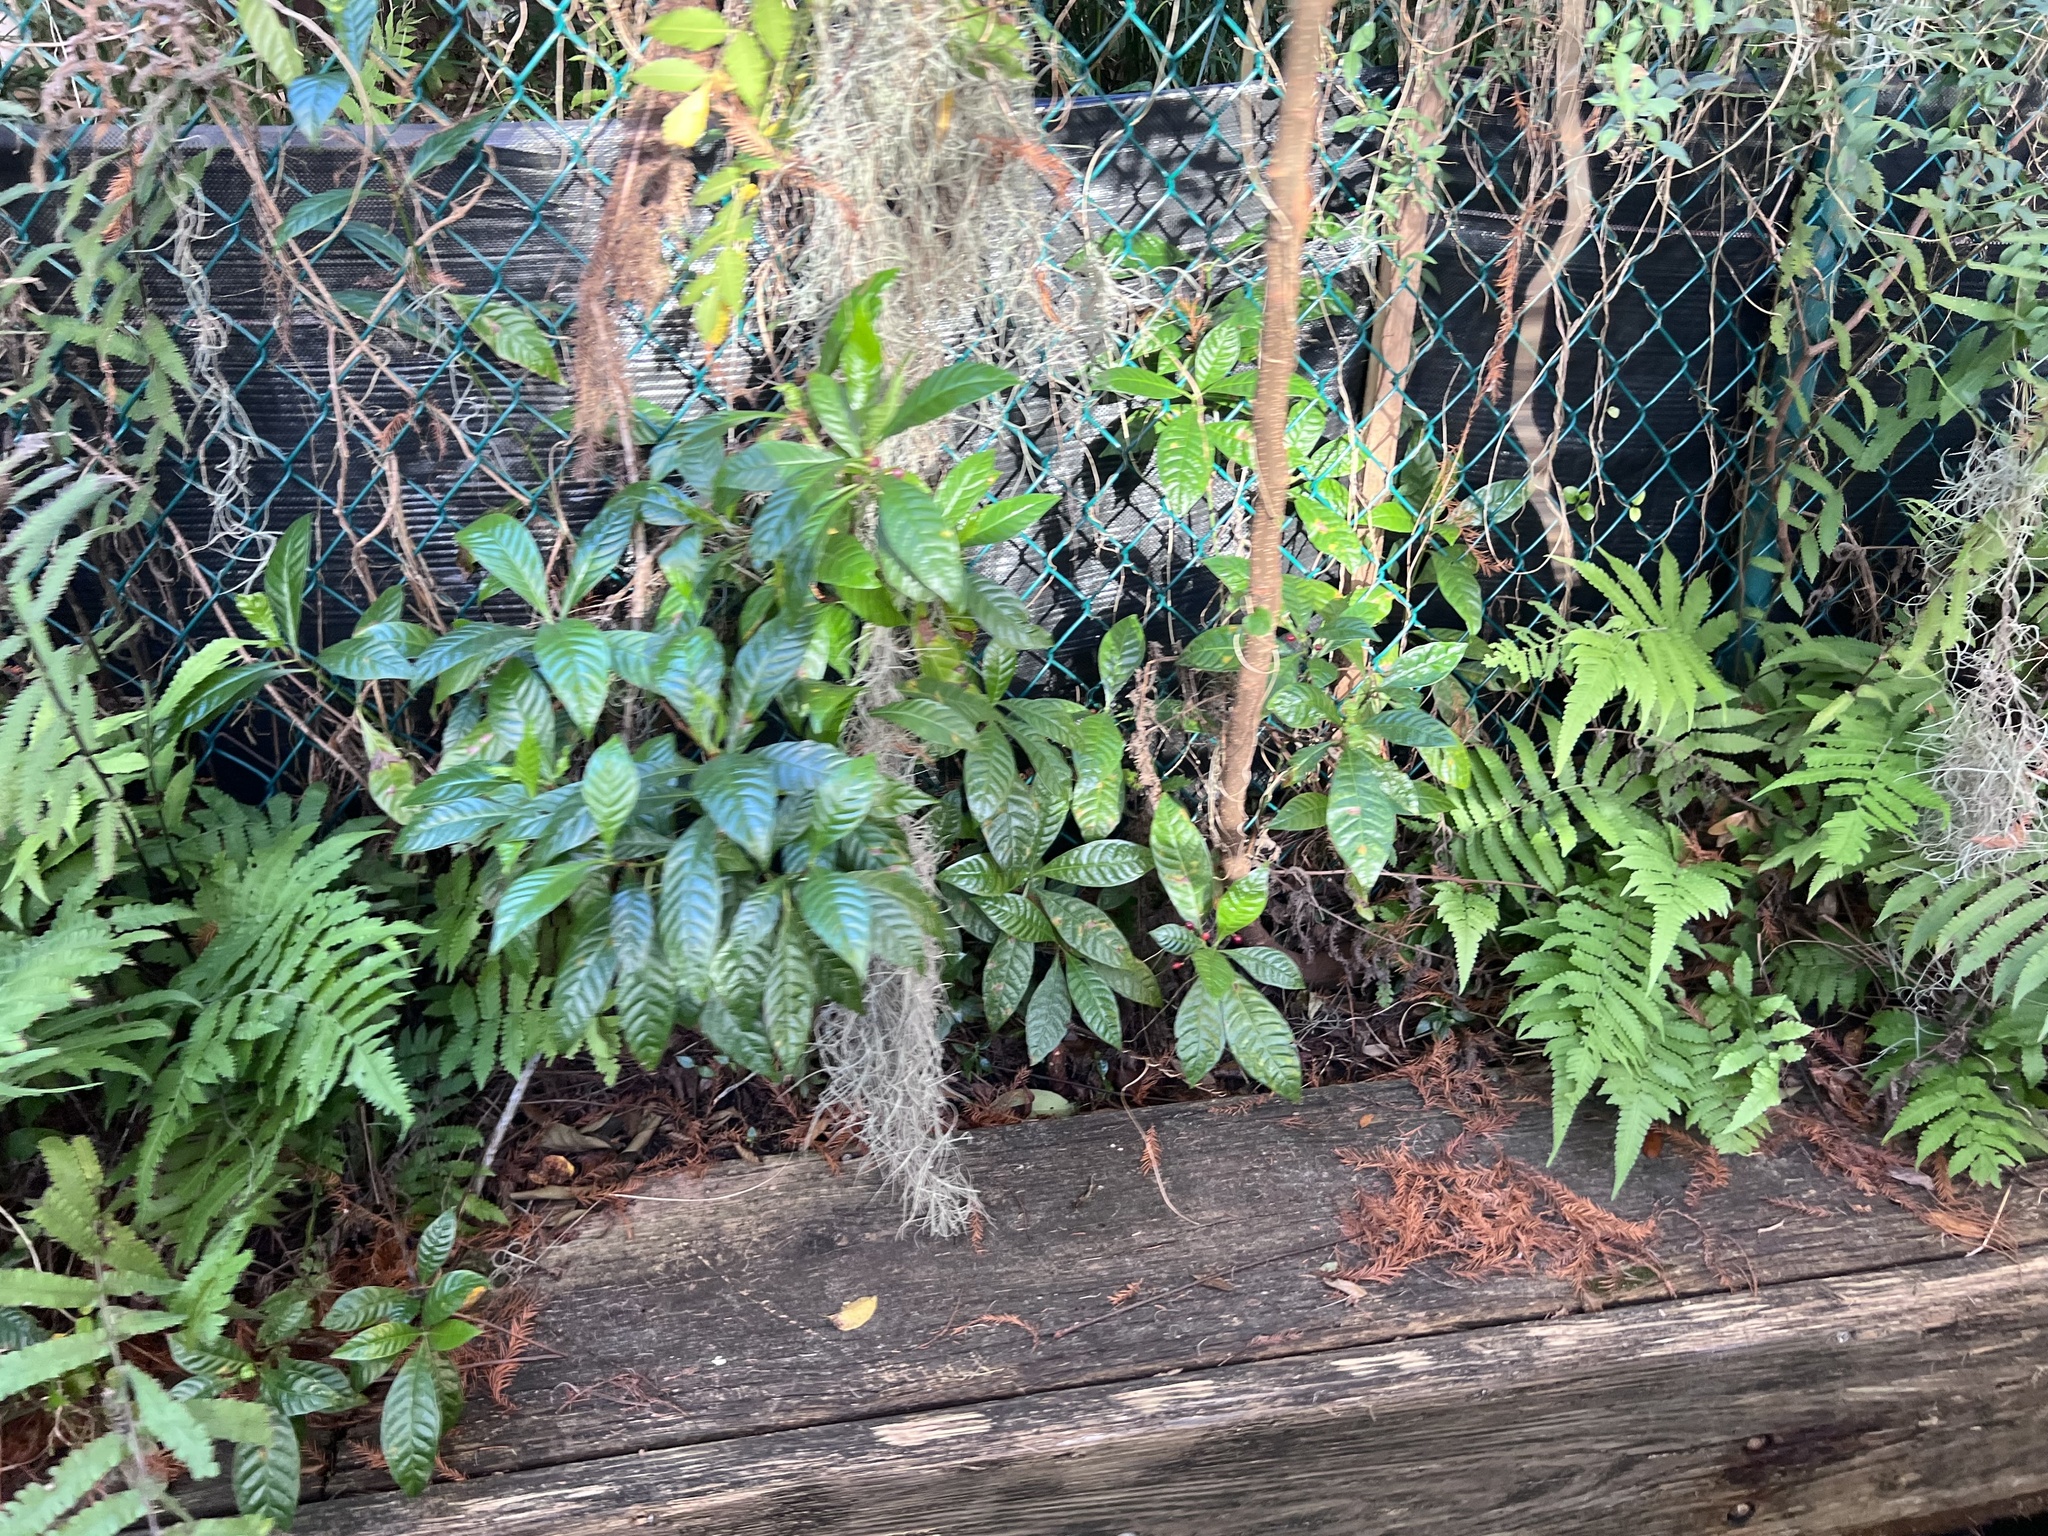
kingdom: Plantae
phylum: Tracheophyta
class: Magnoliopsida
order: Gentianales
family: Rubiaceae
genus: Psychotria
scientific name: Psychotria nervosa
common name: Bastard cankerberry
